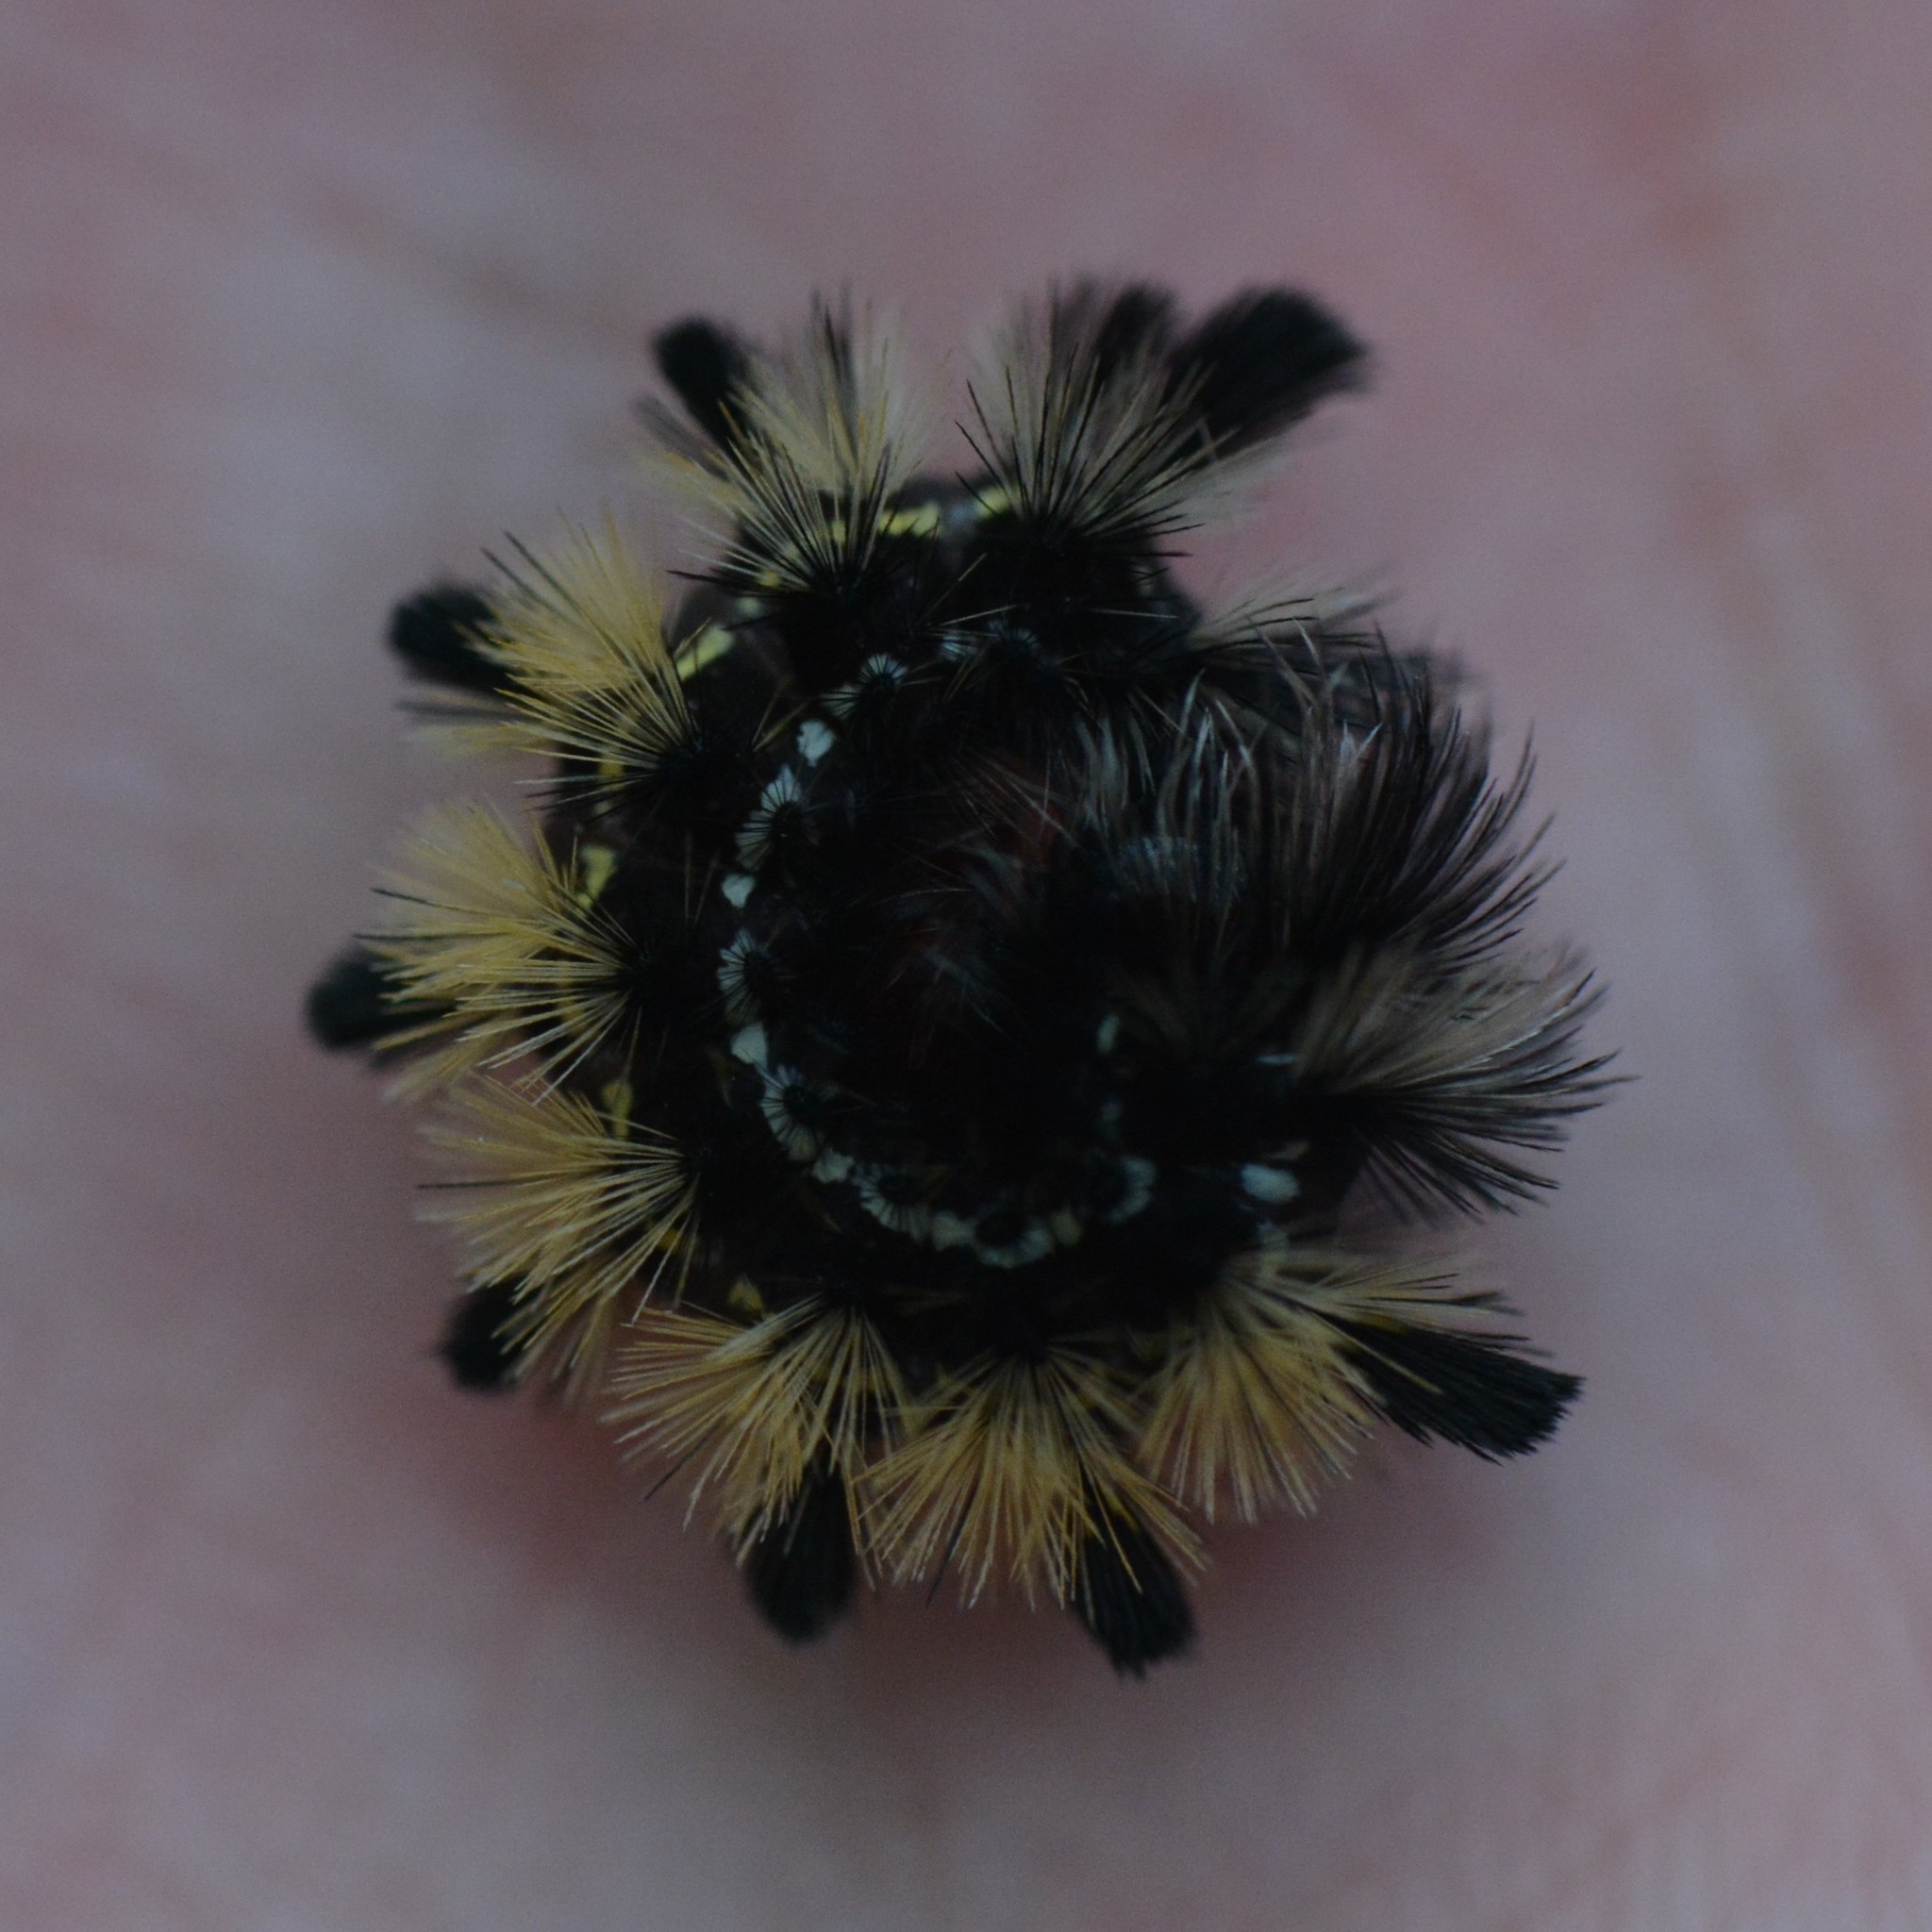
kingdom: Animalia
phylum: Arthropoda
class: Insecta
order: Lepidoptera
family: Erebidae
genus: Ctenucha
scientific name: Ctenucha virginica
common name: Virginia ctenucha moth
